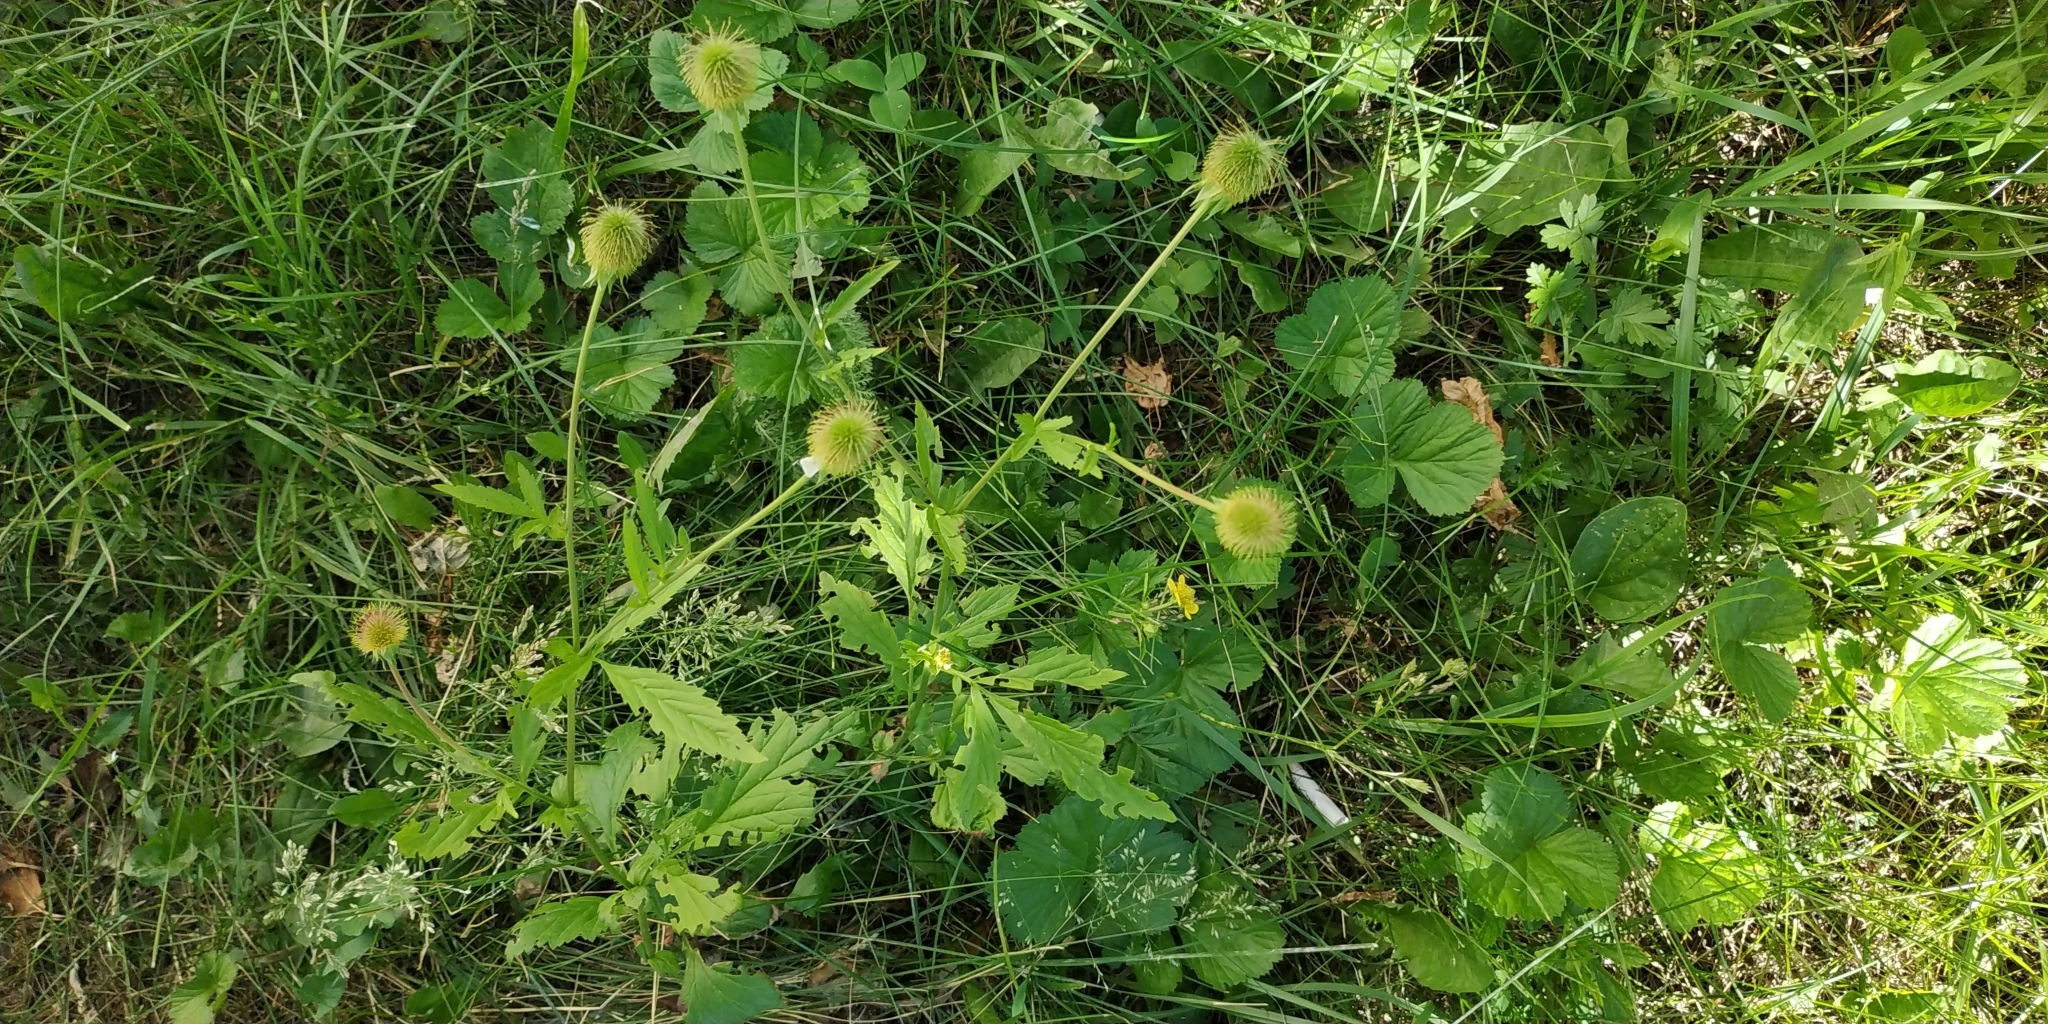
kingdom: Plantae
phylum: Tracheophyta
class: Magnoliopsida
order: Rosales
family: Rosaceae
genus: Geum
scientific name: Geum aleppicum
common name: Yellow avens
